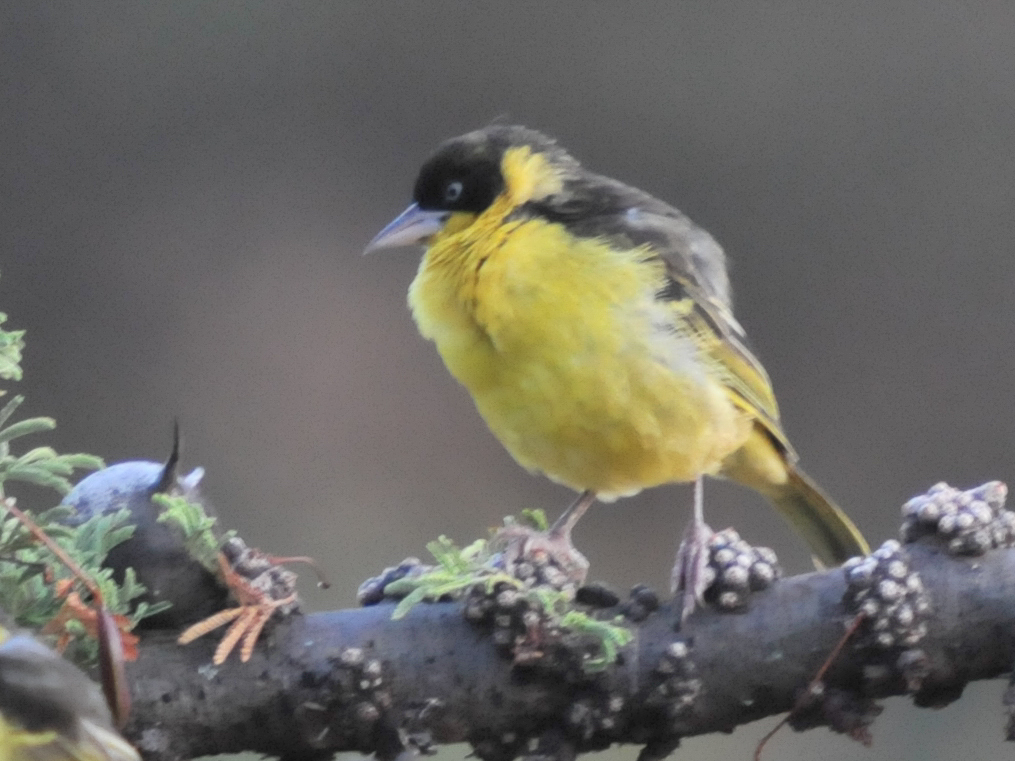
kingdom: Animalia
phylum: Chordata
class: Aves
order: Passeriformes
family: Ploceidae
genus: Ploceus
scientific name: Ploceus baglafecht
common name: Baglafecht weaver
